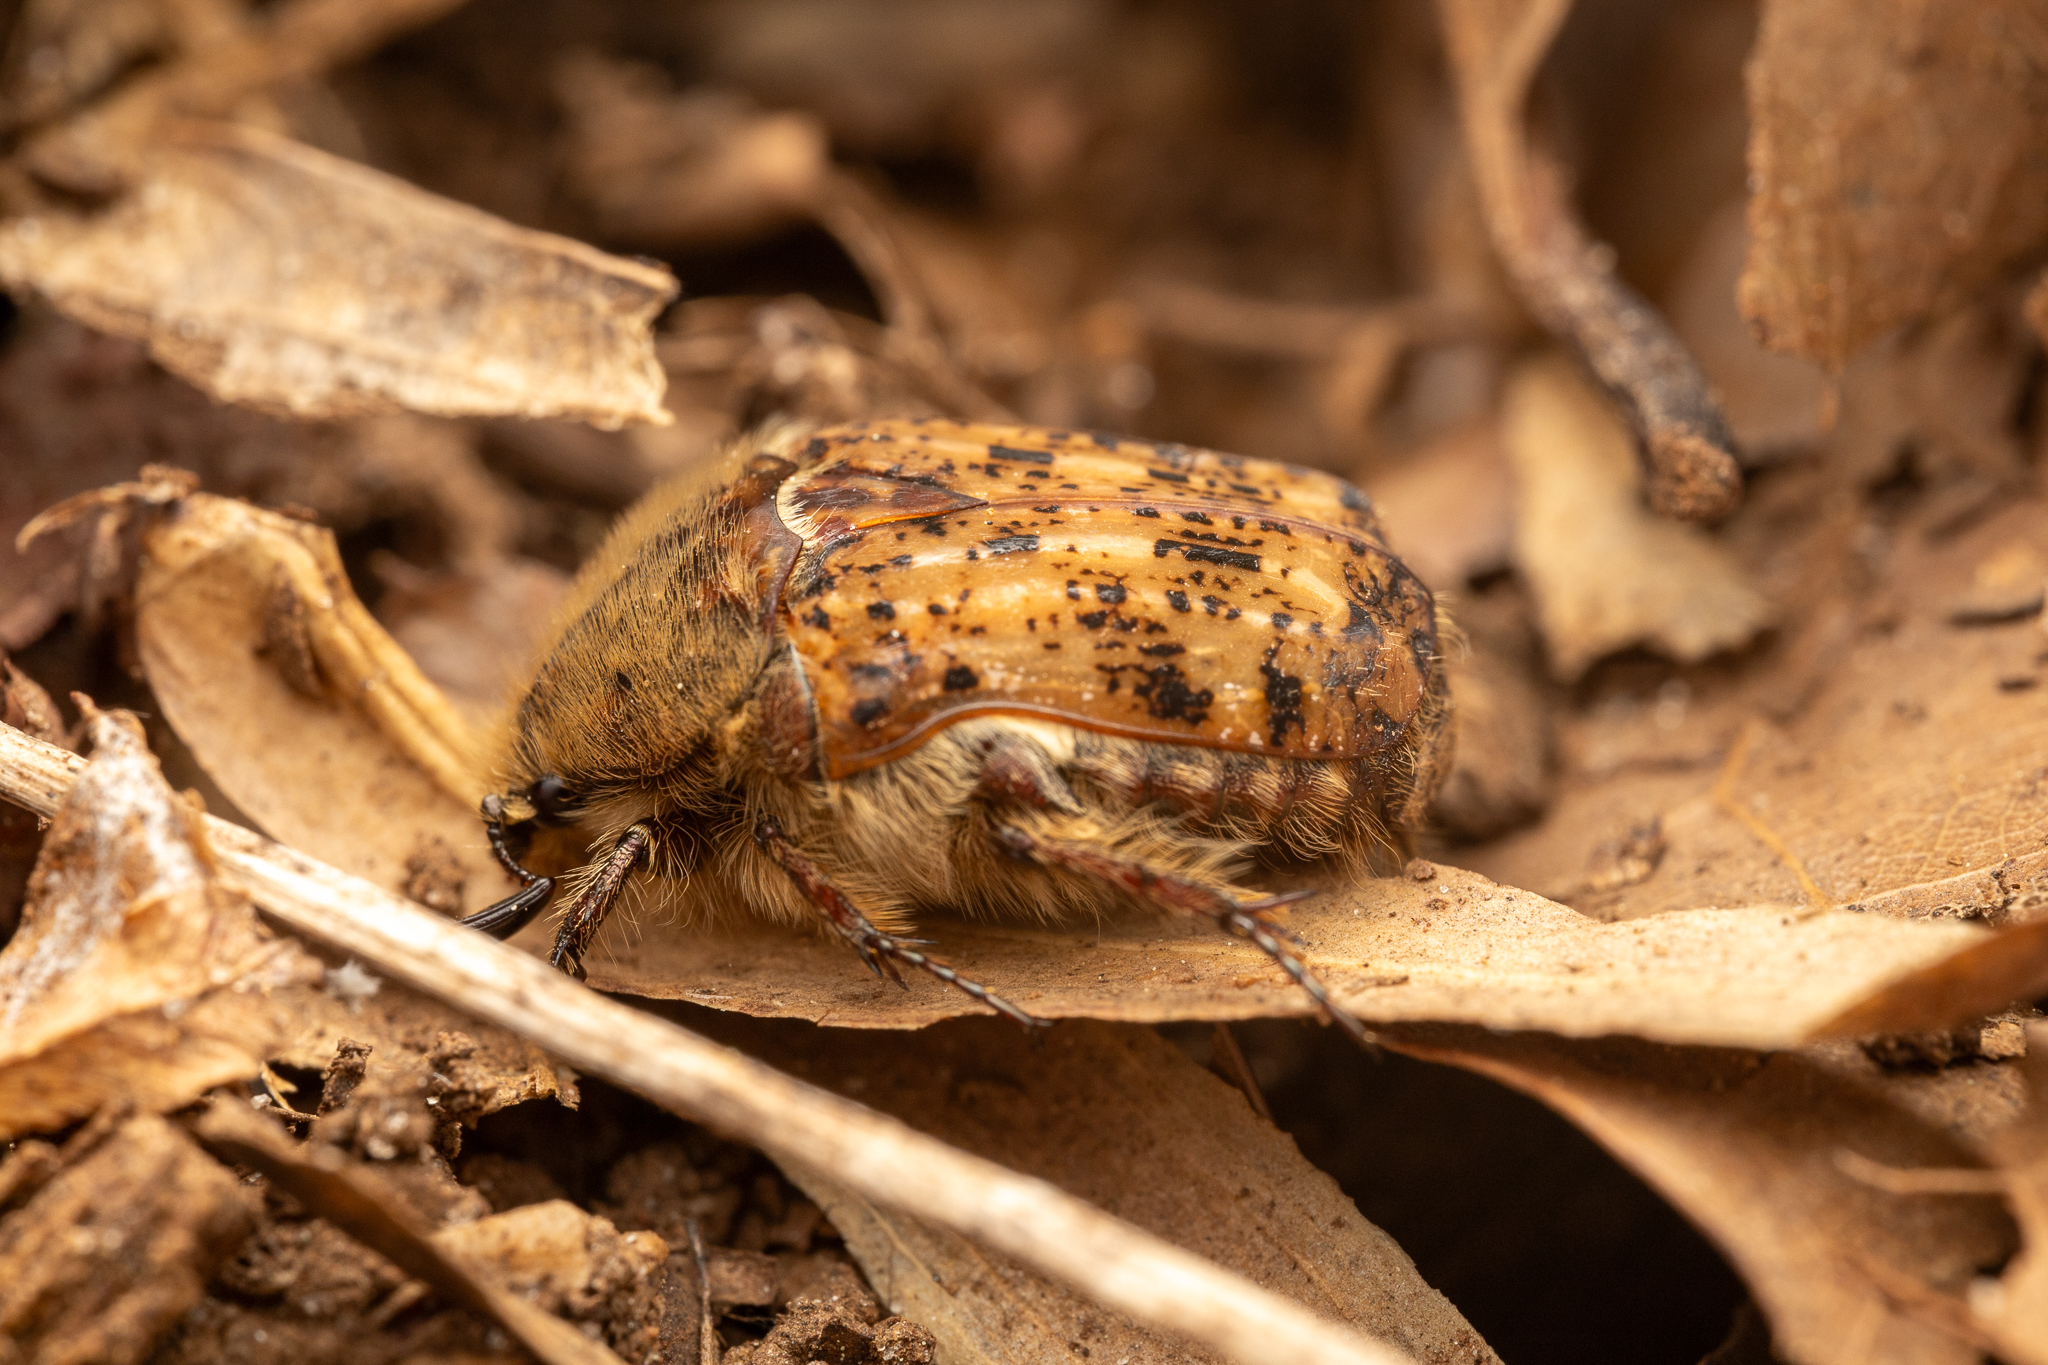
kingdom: Animalia
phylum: Arthropoda
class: Insecta
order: Coleoptera
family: Scarabaeidae
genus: Euphoria
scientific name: Euphoria inda
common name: Bumble flower beetle
